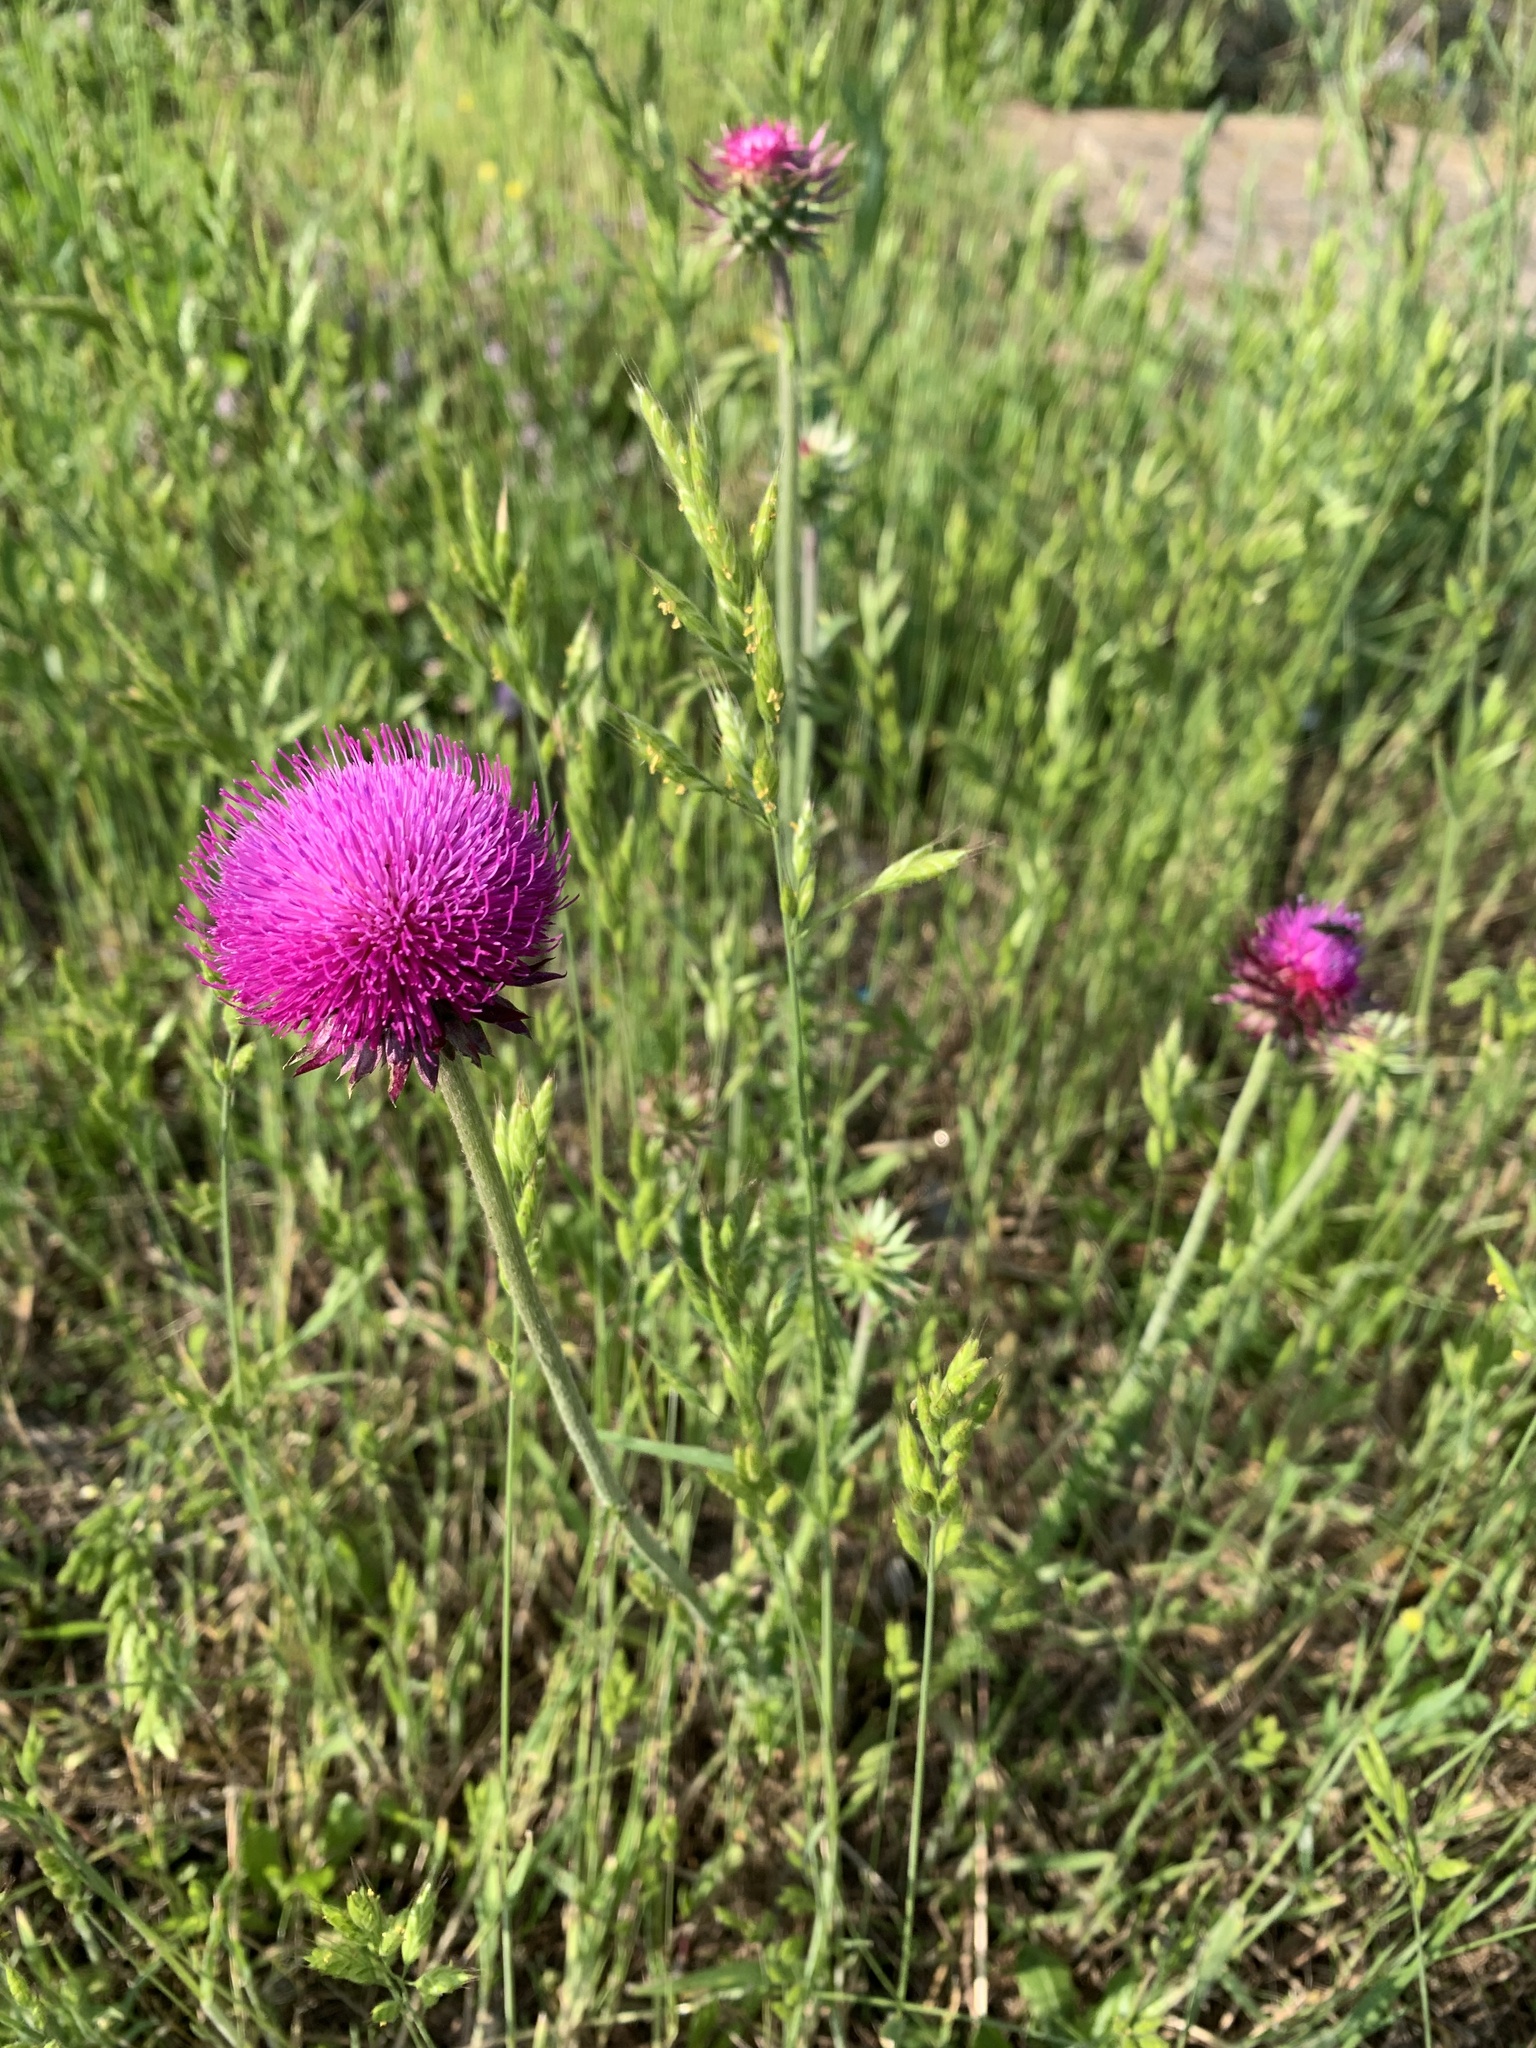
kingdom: Plantae
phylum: Tracheophyta
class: Magnoliopsida
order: Asterales
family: Asteraceae
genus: Carduus
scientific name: Carduus nutans
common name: Musk thistle
